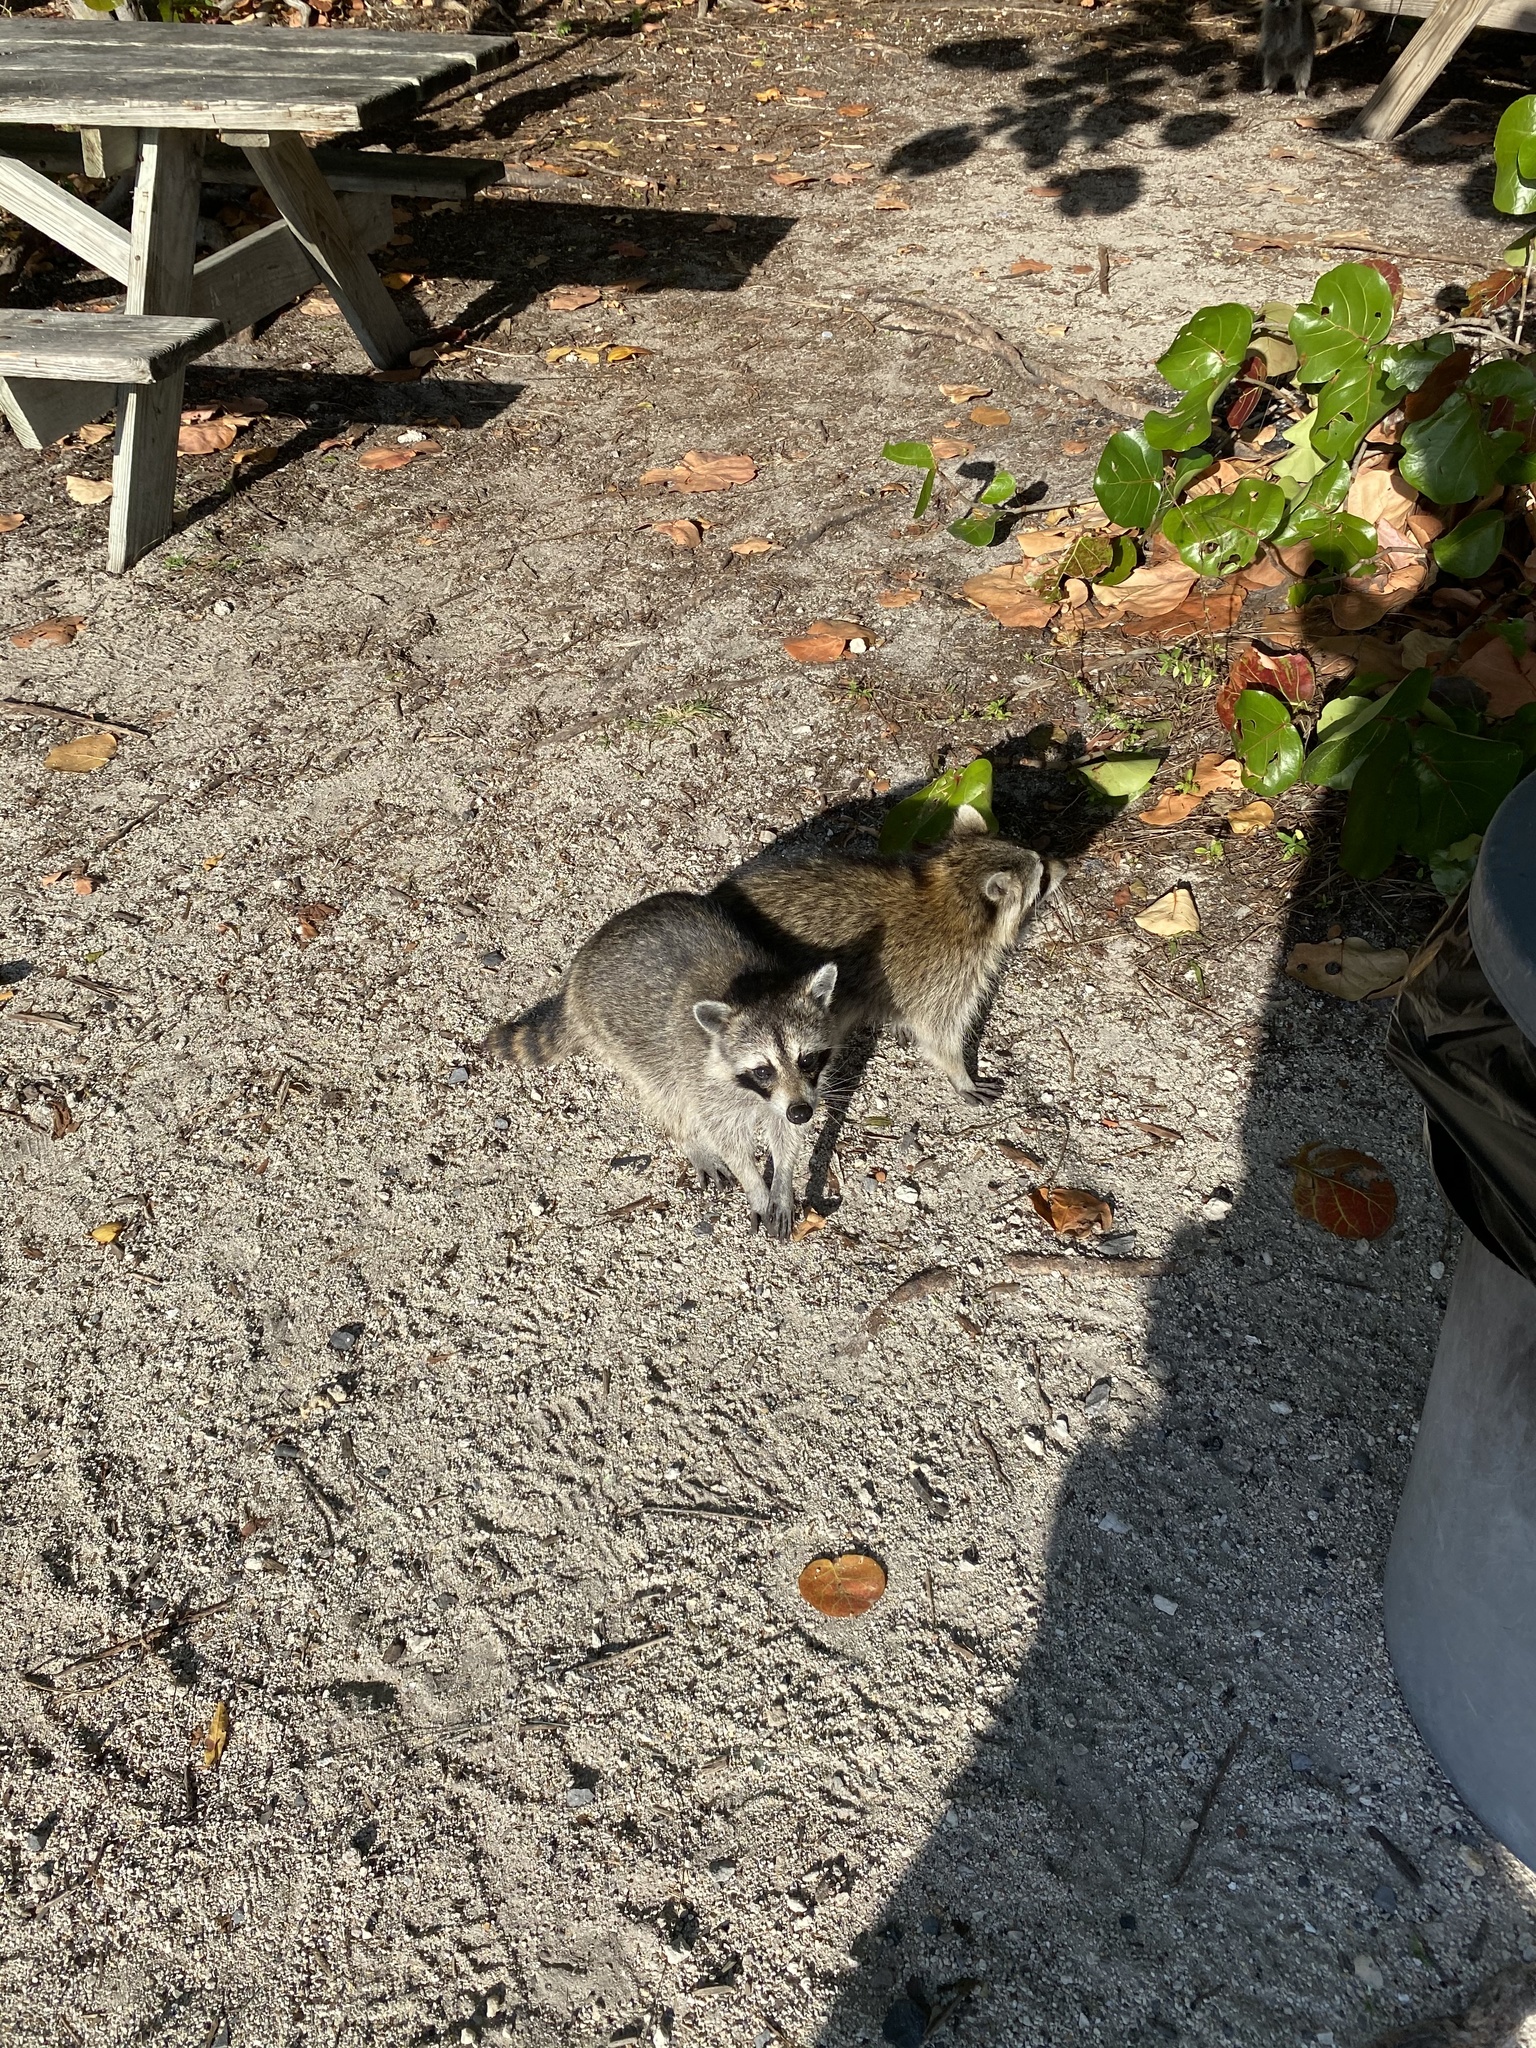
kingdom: Animalia
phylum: Chordata
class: Mammalia
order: Carnivora
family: Procyonidae
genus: Procyon
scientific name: Procyon lotor
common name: Raccoon
